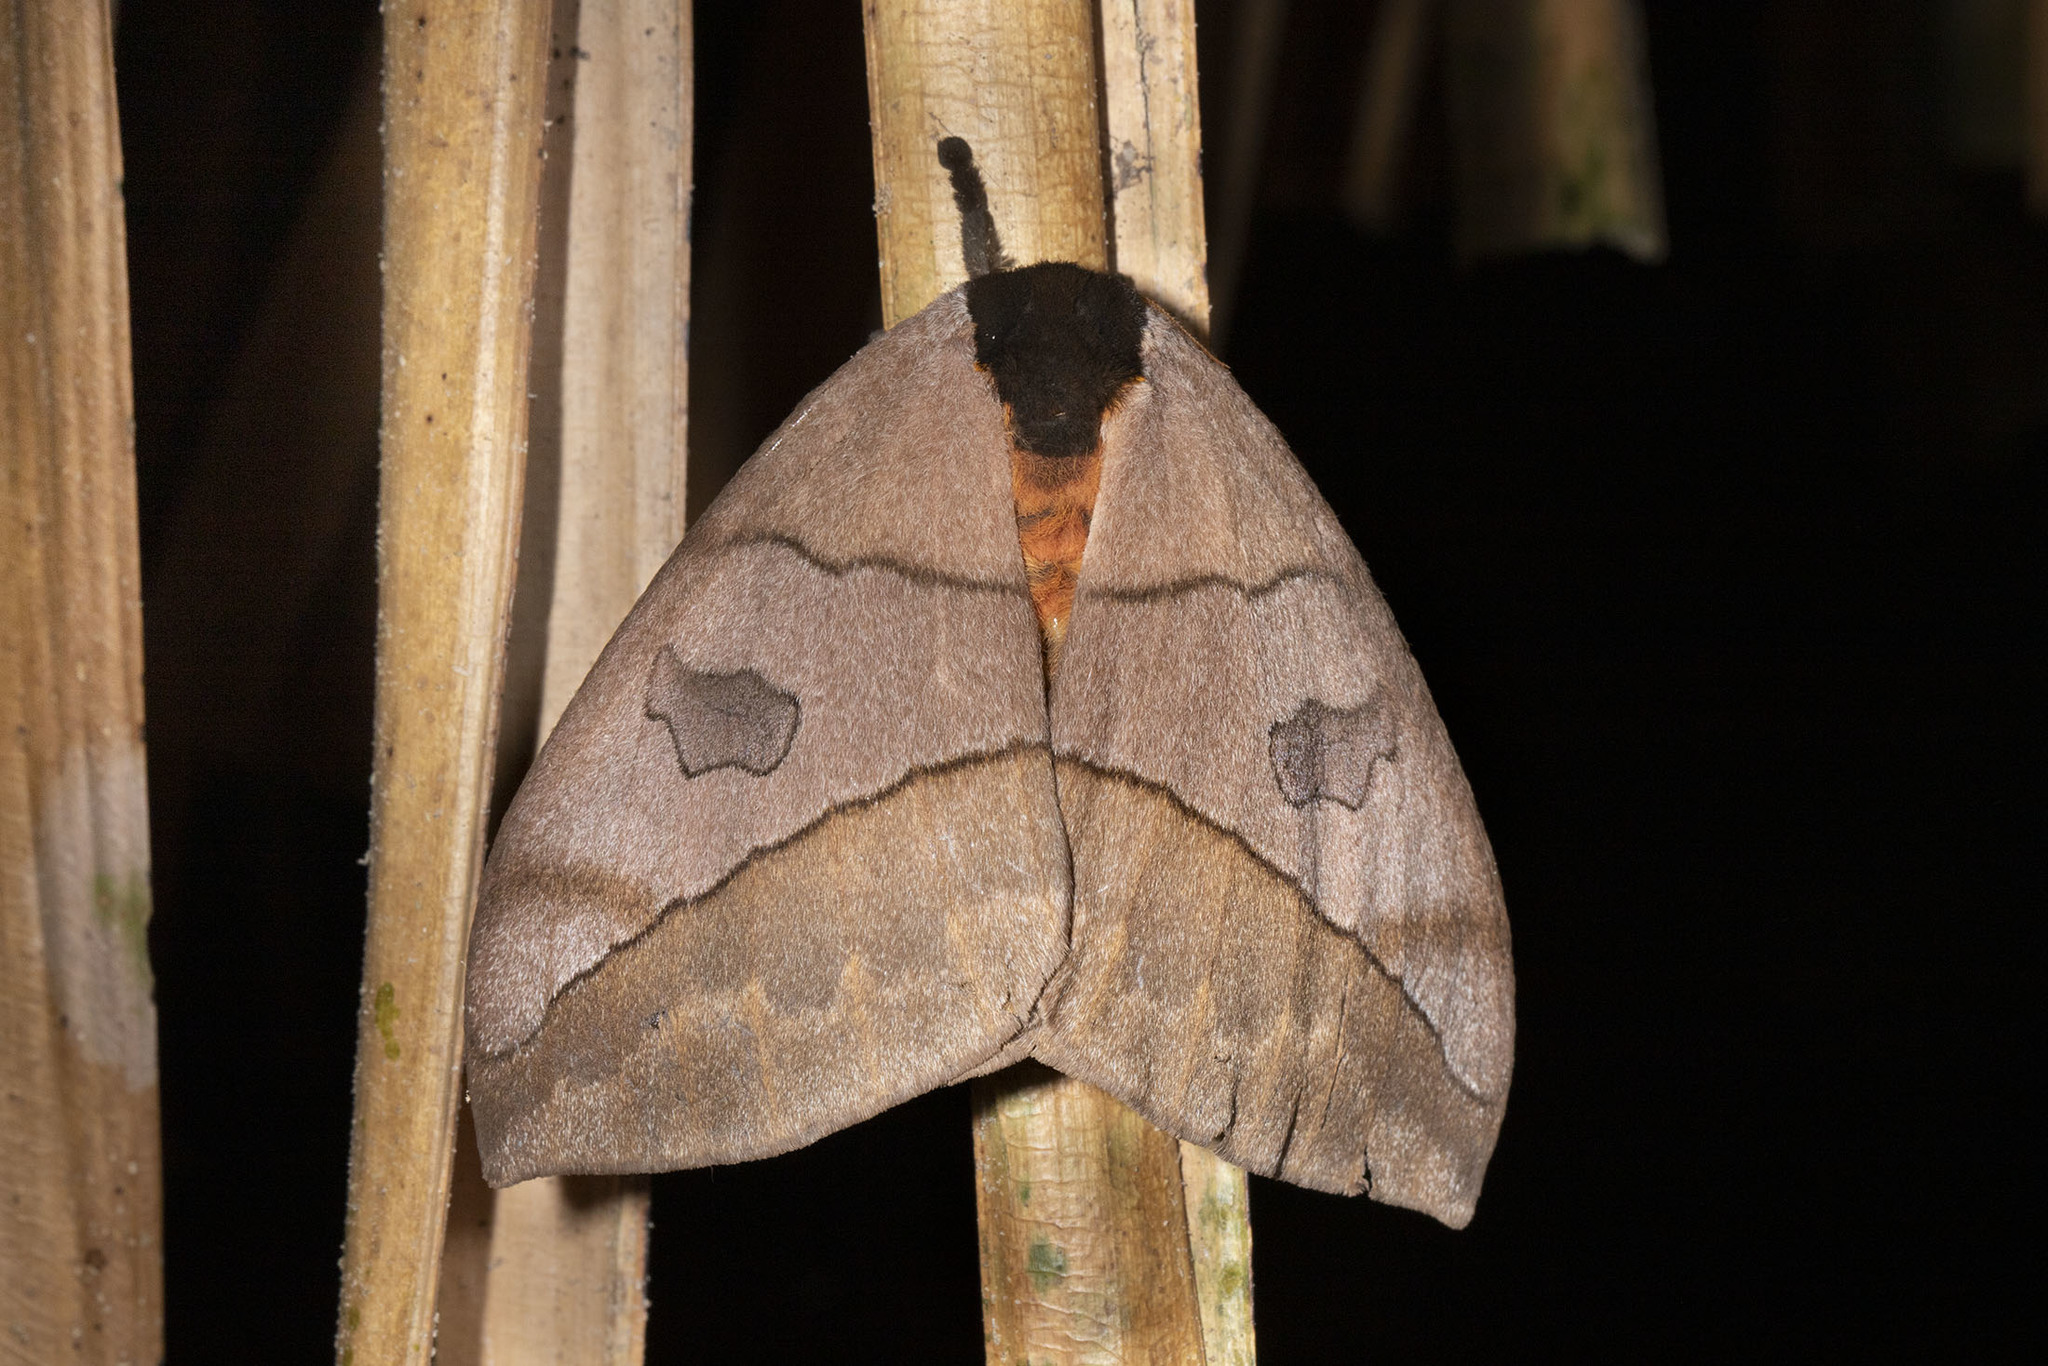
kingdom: Animalia
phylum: Arthropoda
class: Insecta
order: Lepidoptera
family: Saturniidae
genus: Automeris
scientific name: Automeris liberia
